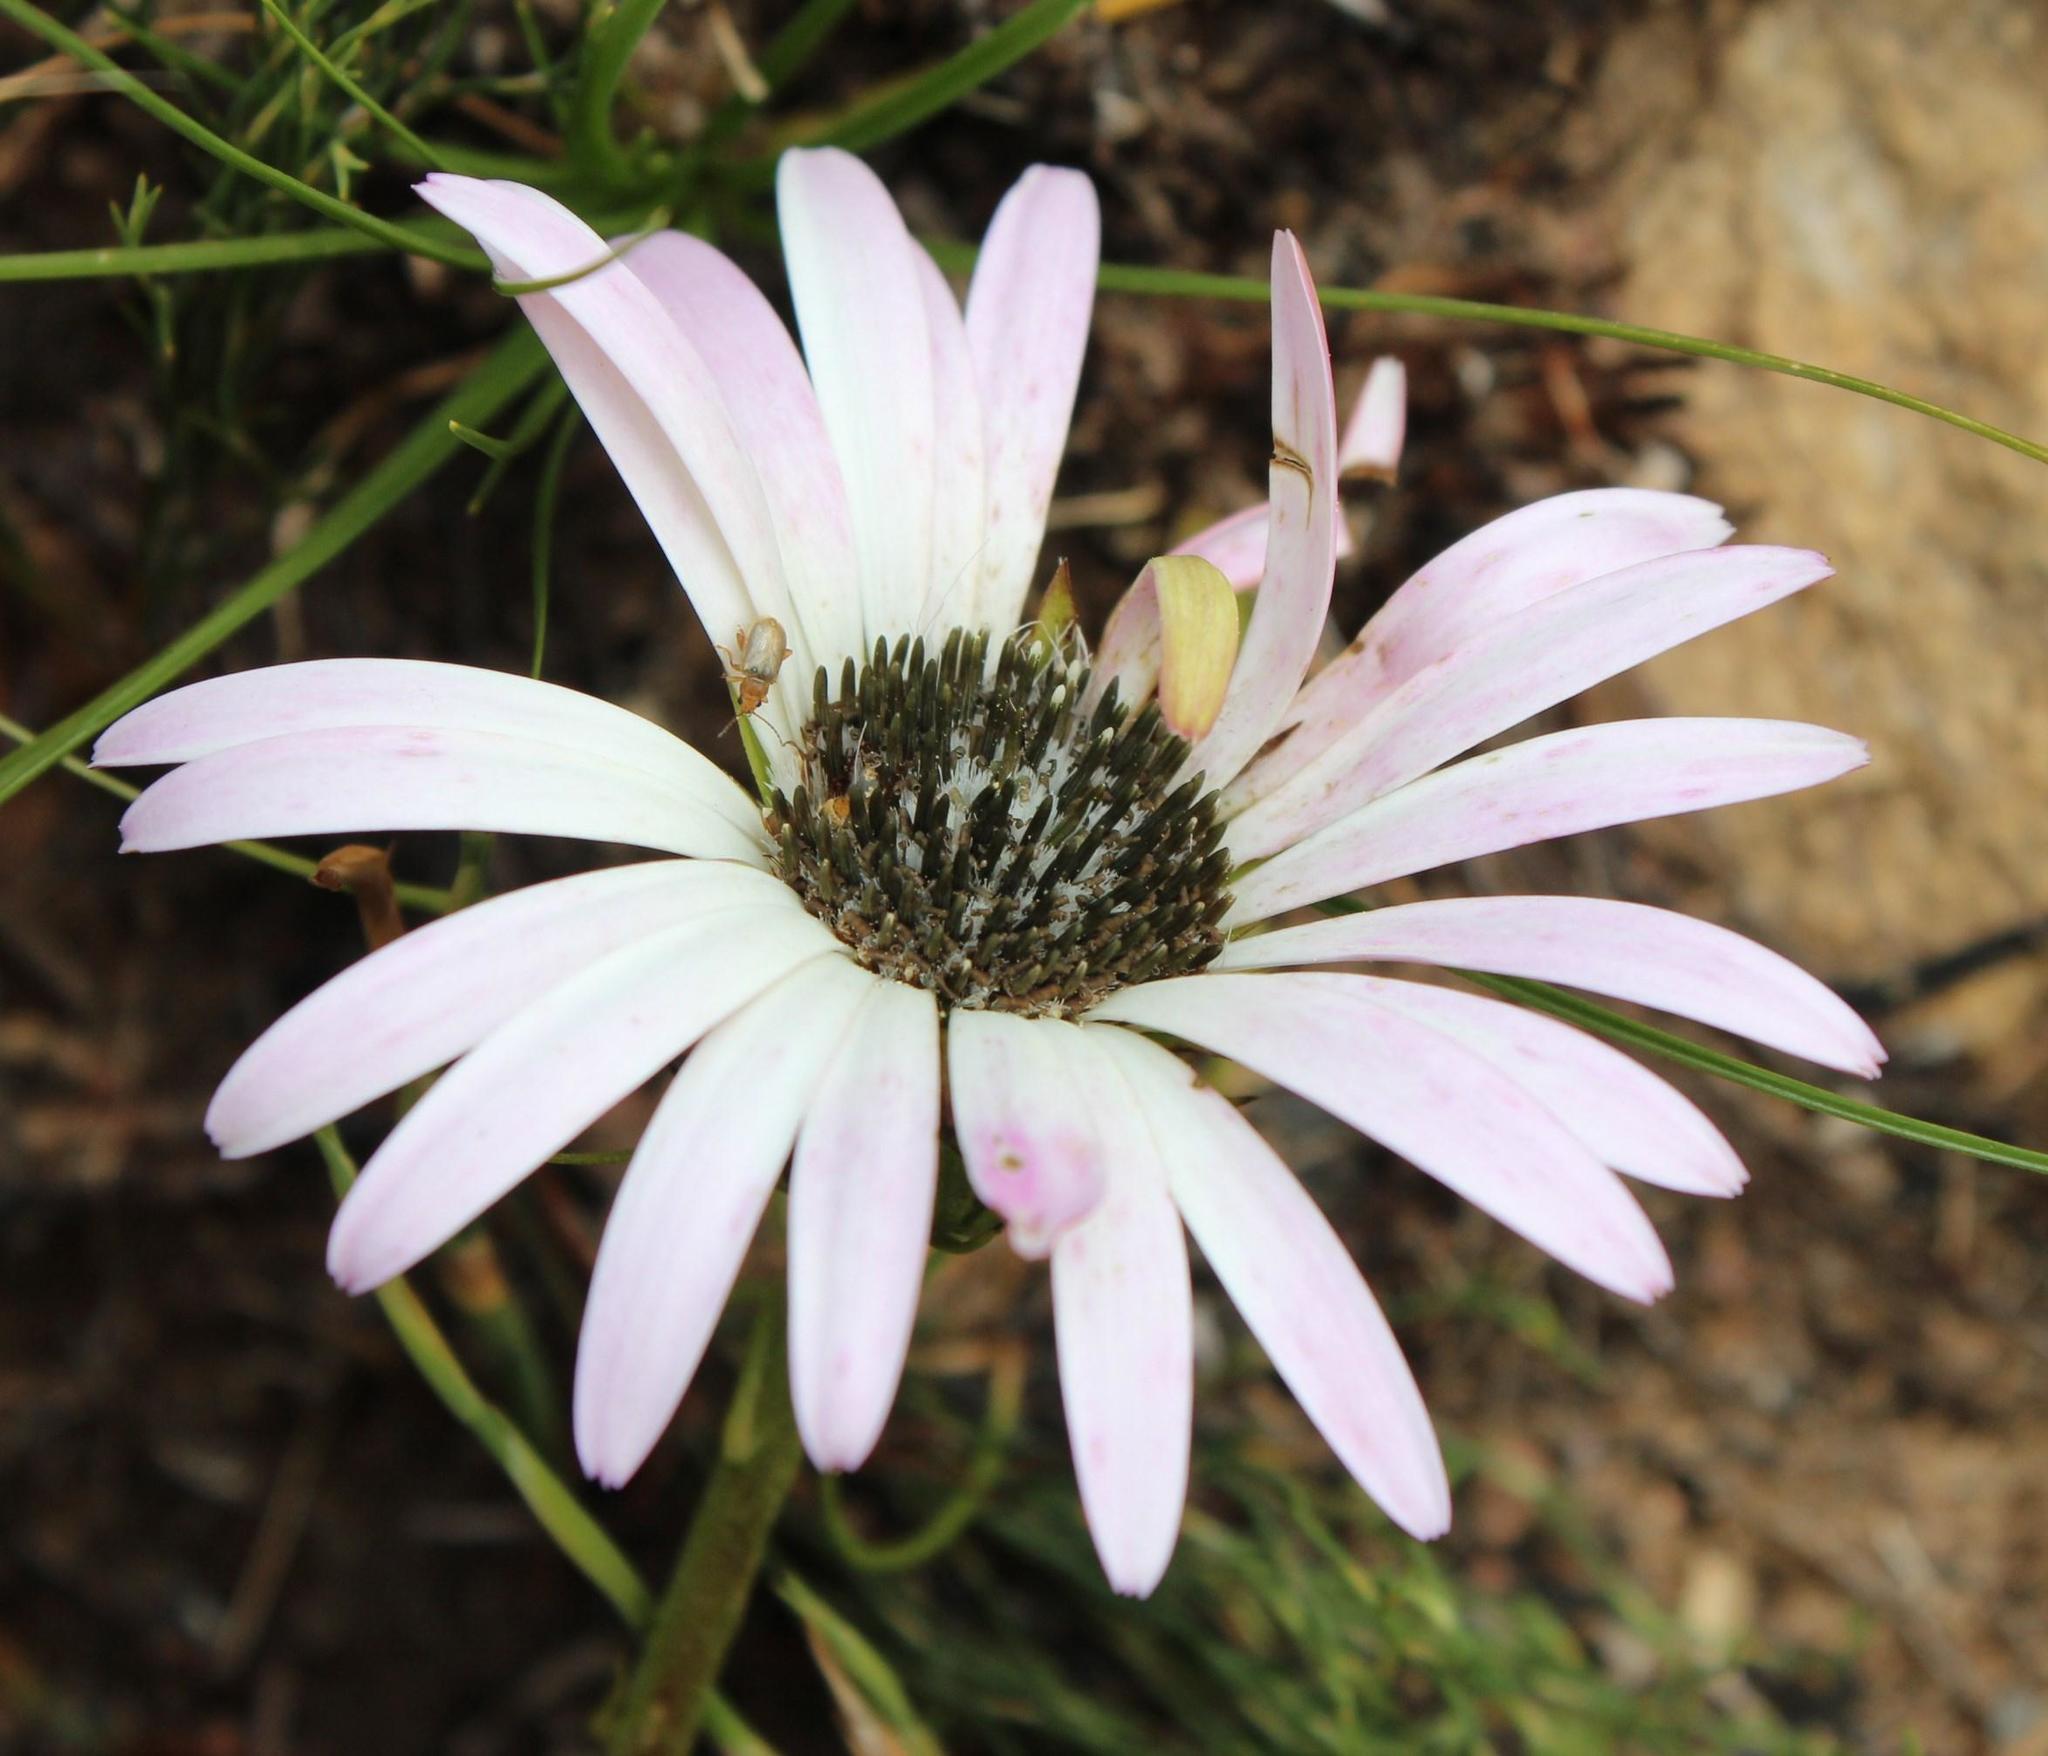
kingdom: Plantae
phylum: Tracheophyta
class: Magnoliopsida
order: Asterales
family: Asteraceae
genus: Gerbera
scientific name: Gerbera crocea
